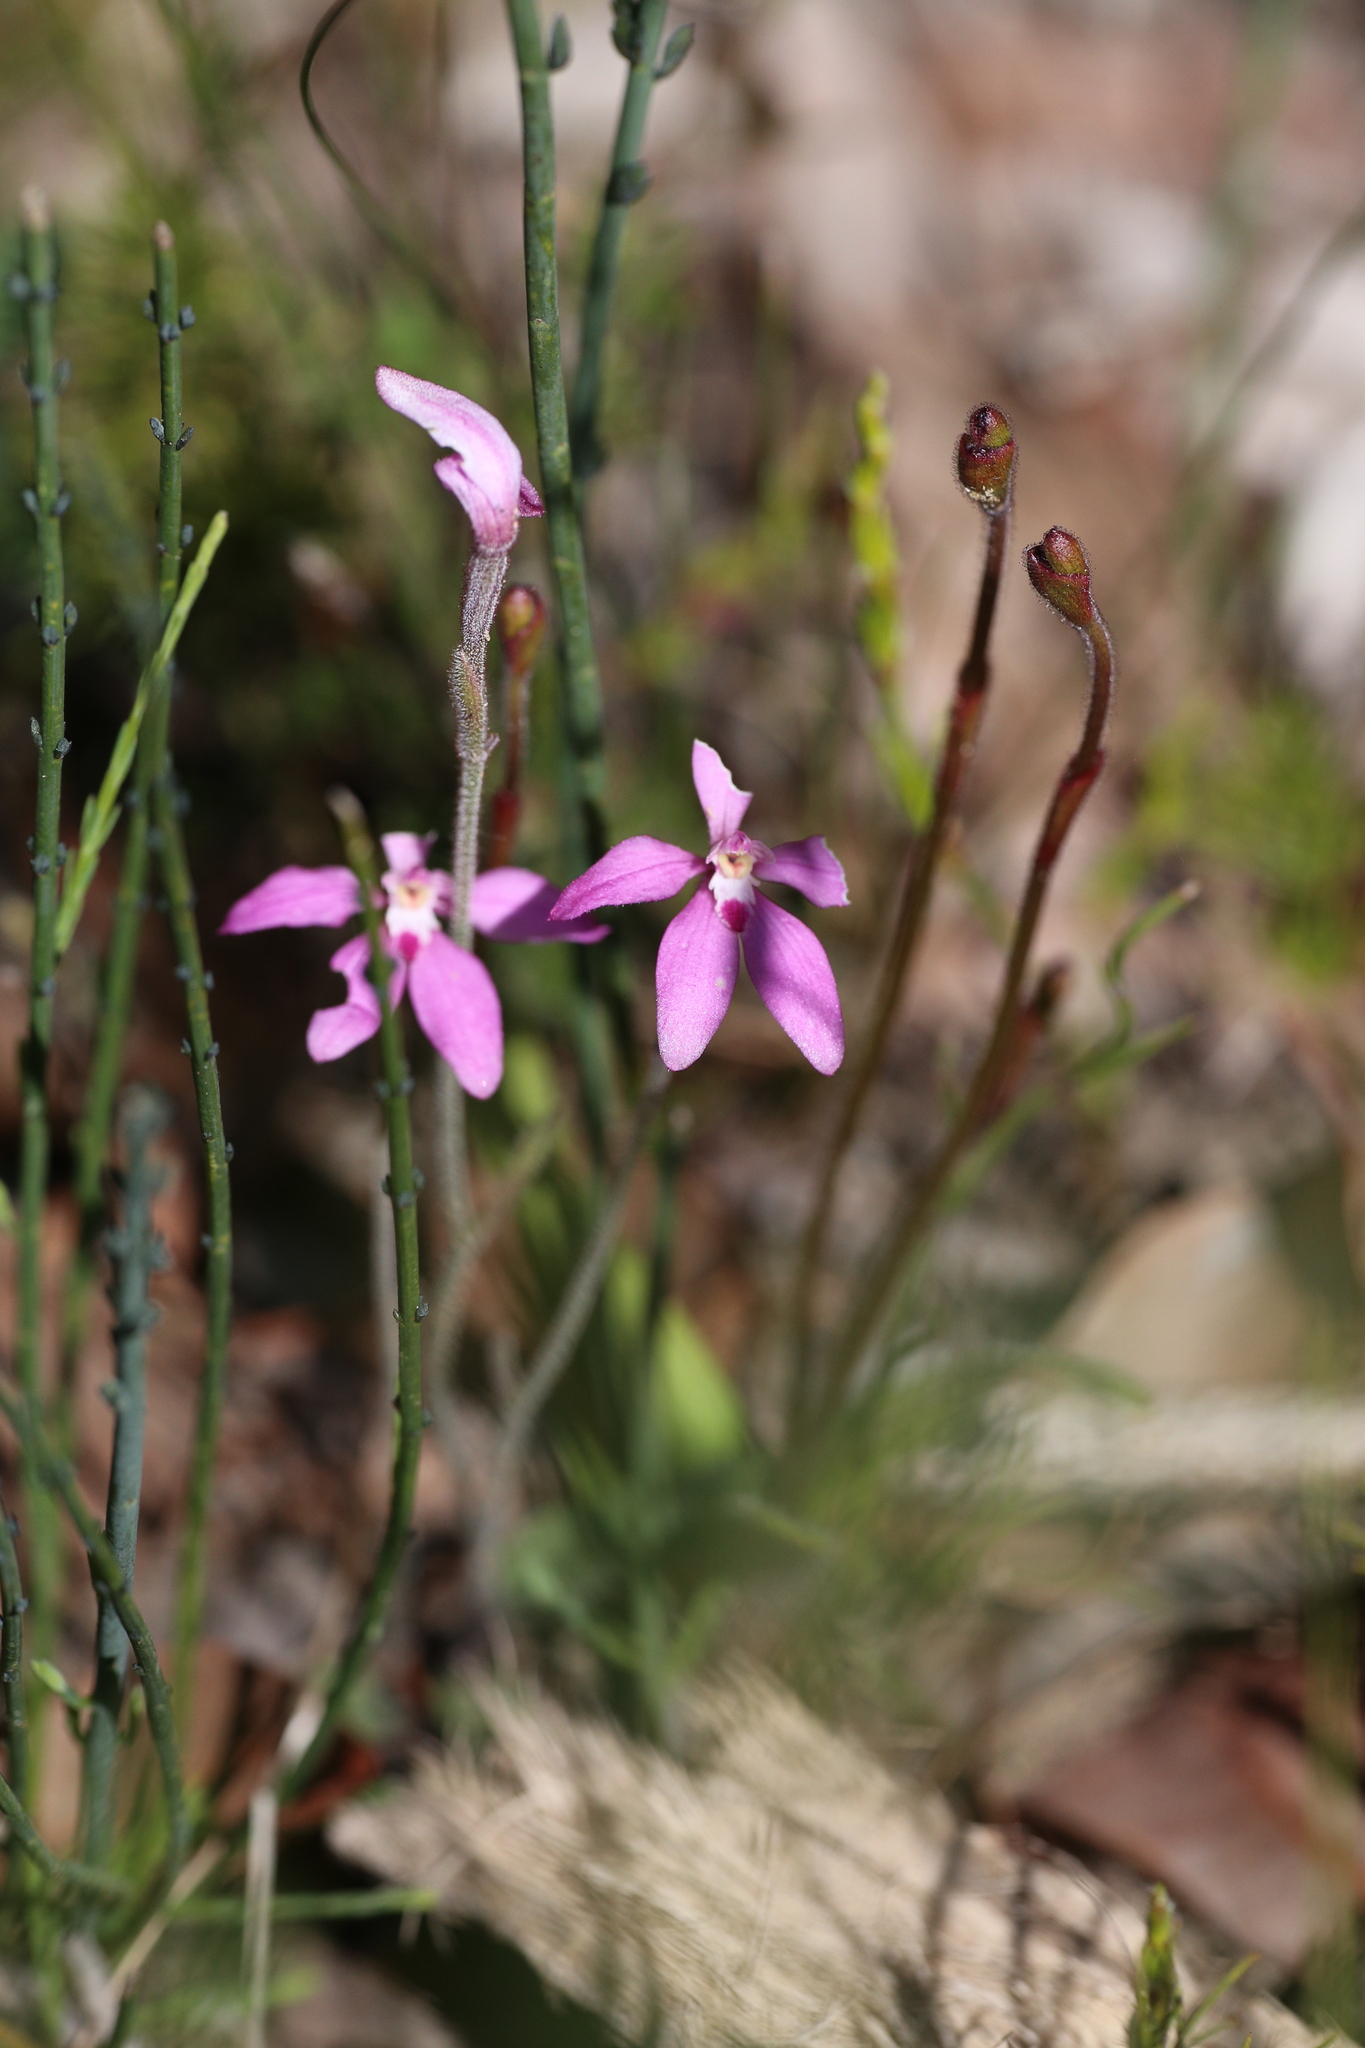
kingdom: Plantae
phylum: Tracheophyta
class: Liliopsida
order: Asparagales
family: Orchidaceae
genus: Caladenia
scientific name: Caladenia reptans
